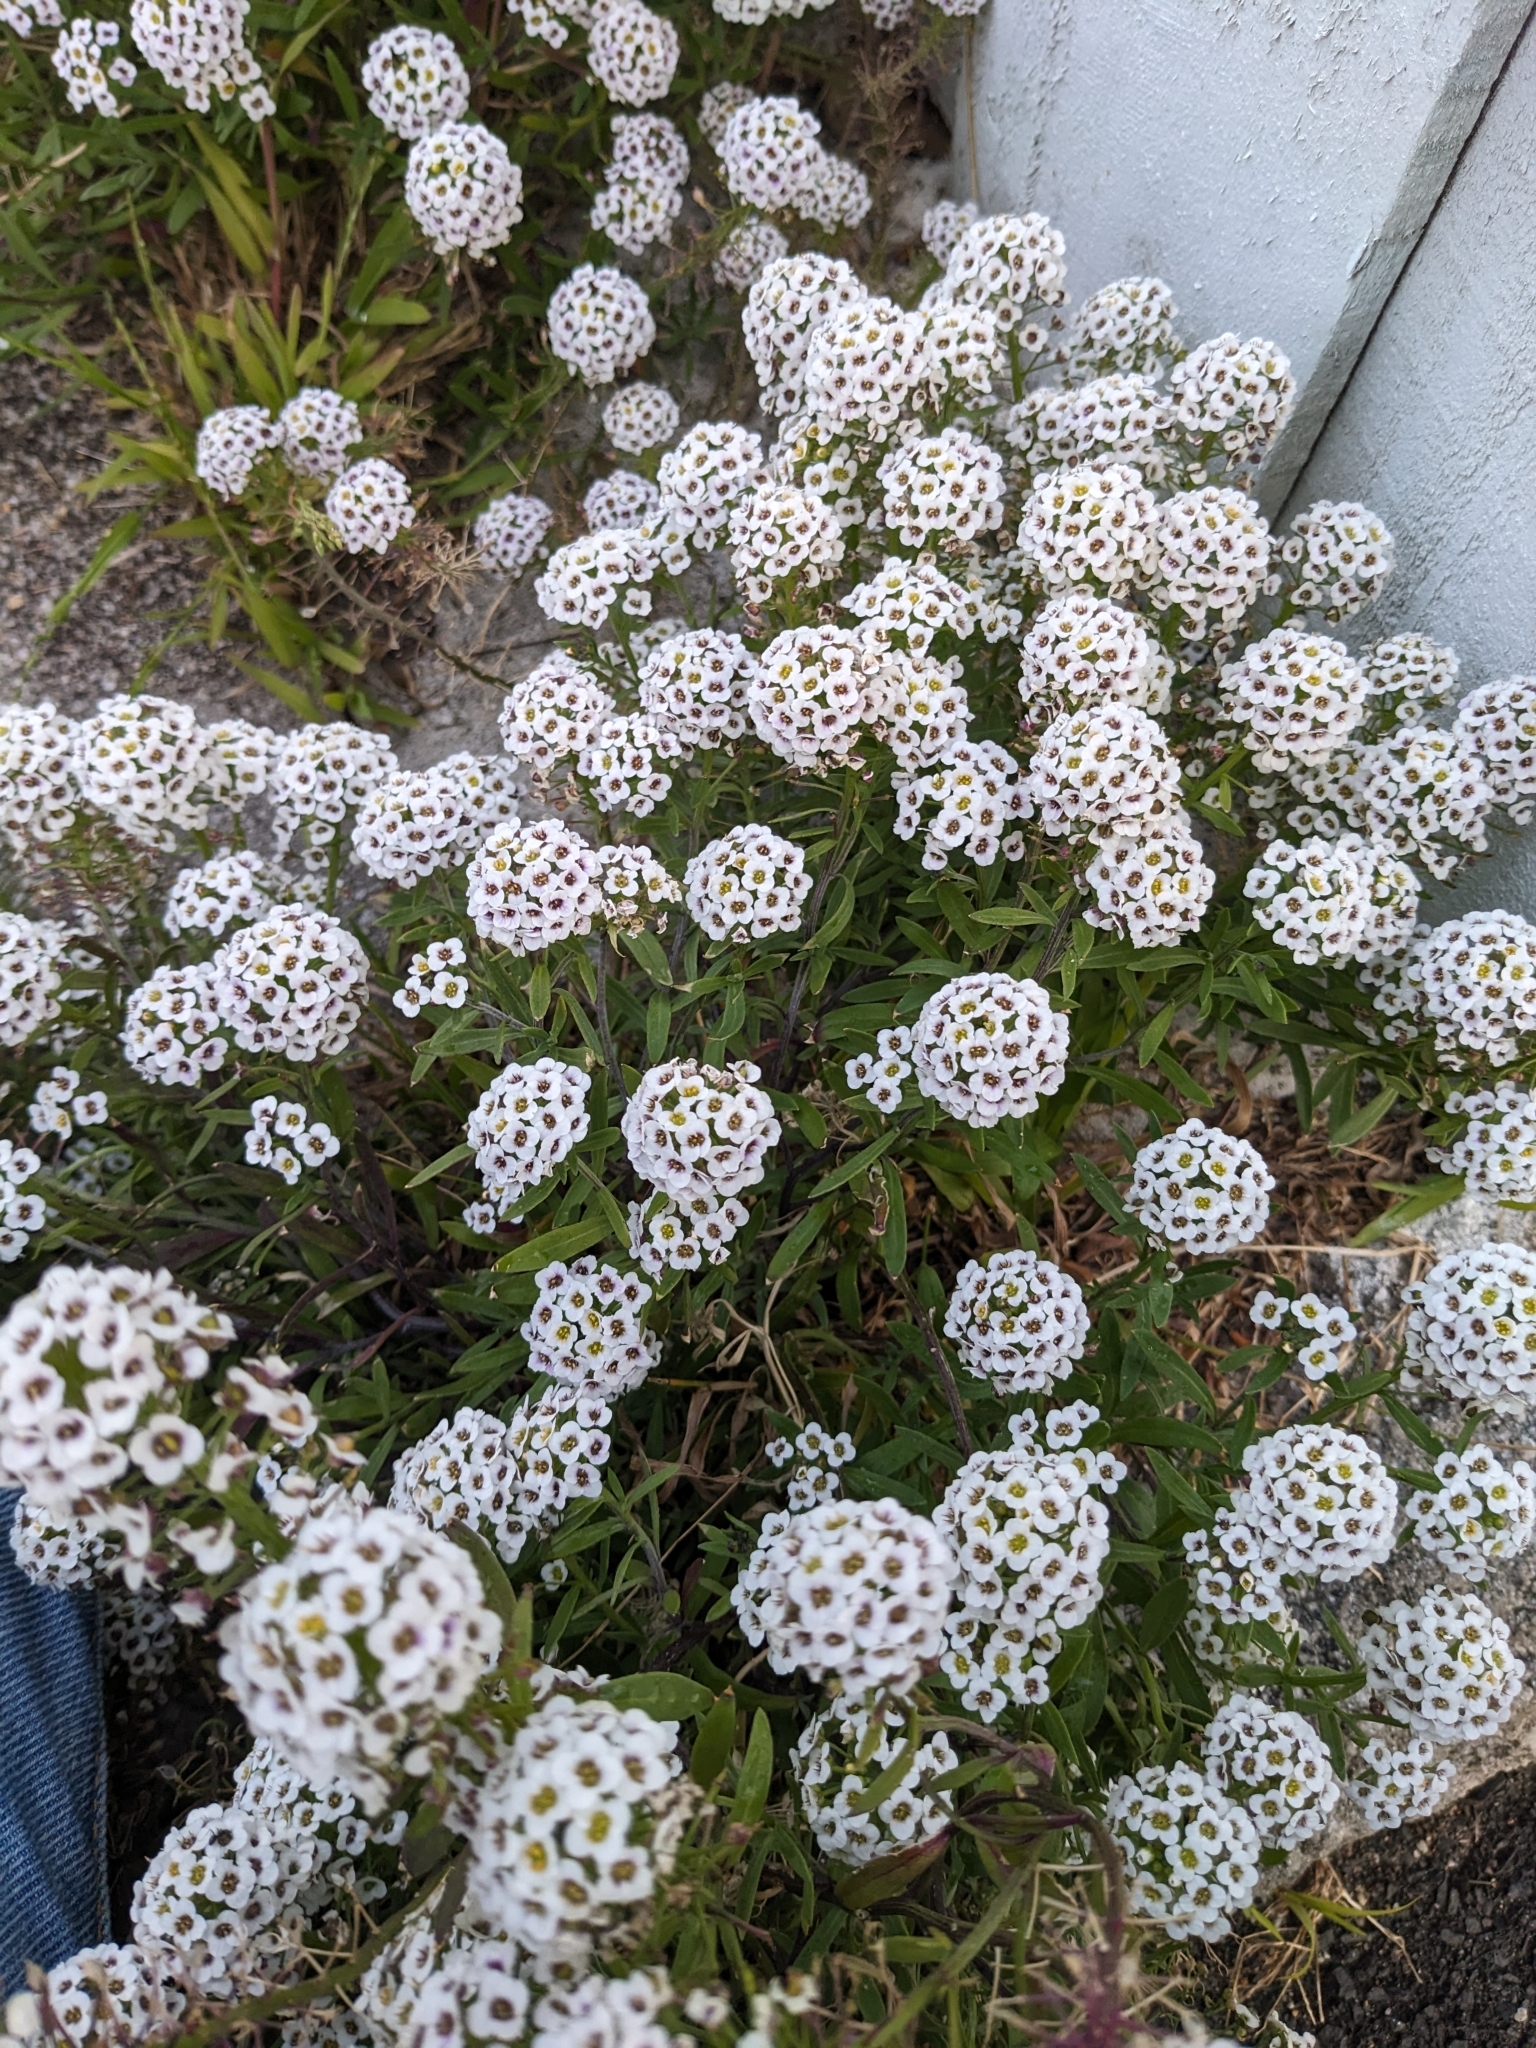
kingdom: Plantae
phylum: Tracheophyta
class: Magnoliopsida
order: Brassicales
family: Brassicaceae
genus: Lobularia
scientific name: Lobularia maritima
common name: Sweet alison
